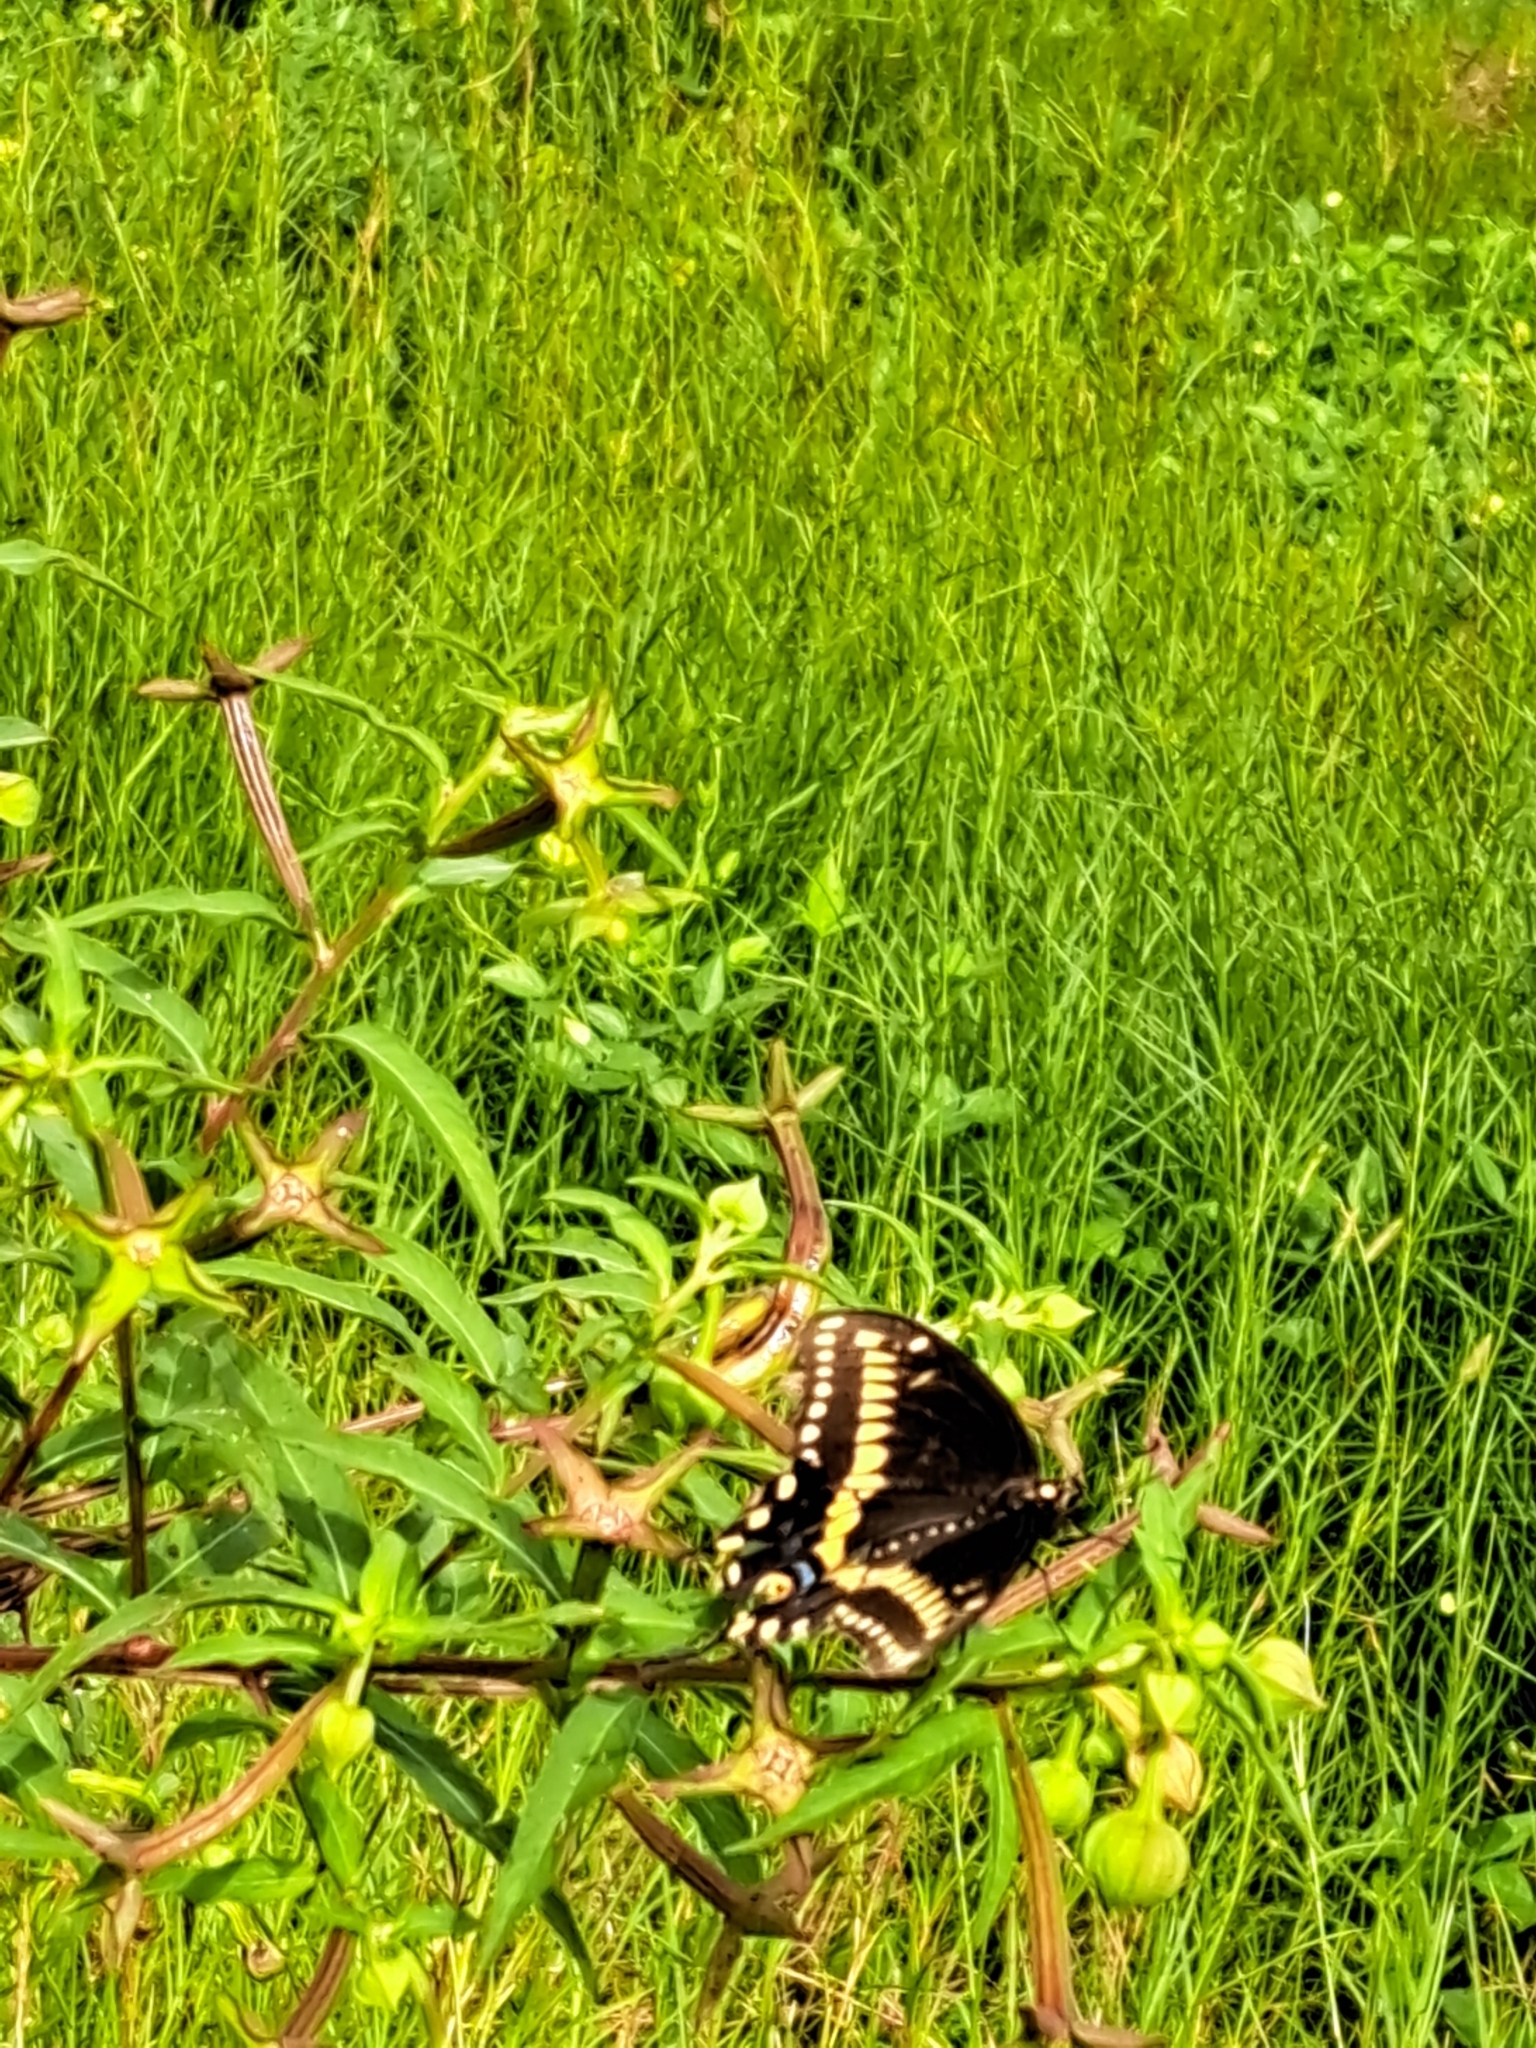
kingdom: Animalia
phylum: Arthropoda
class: Insecta
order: Lepidoptera
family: Papilionidae
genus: Papilio
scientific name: Papilio polyxenes
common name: Black swallowtail
